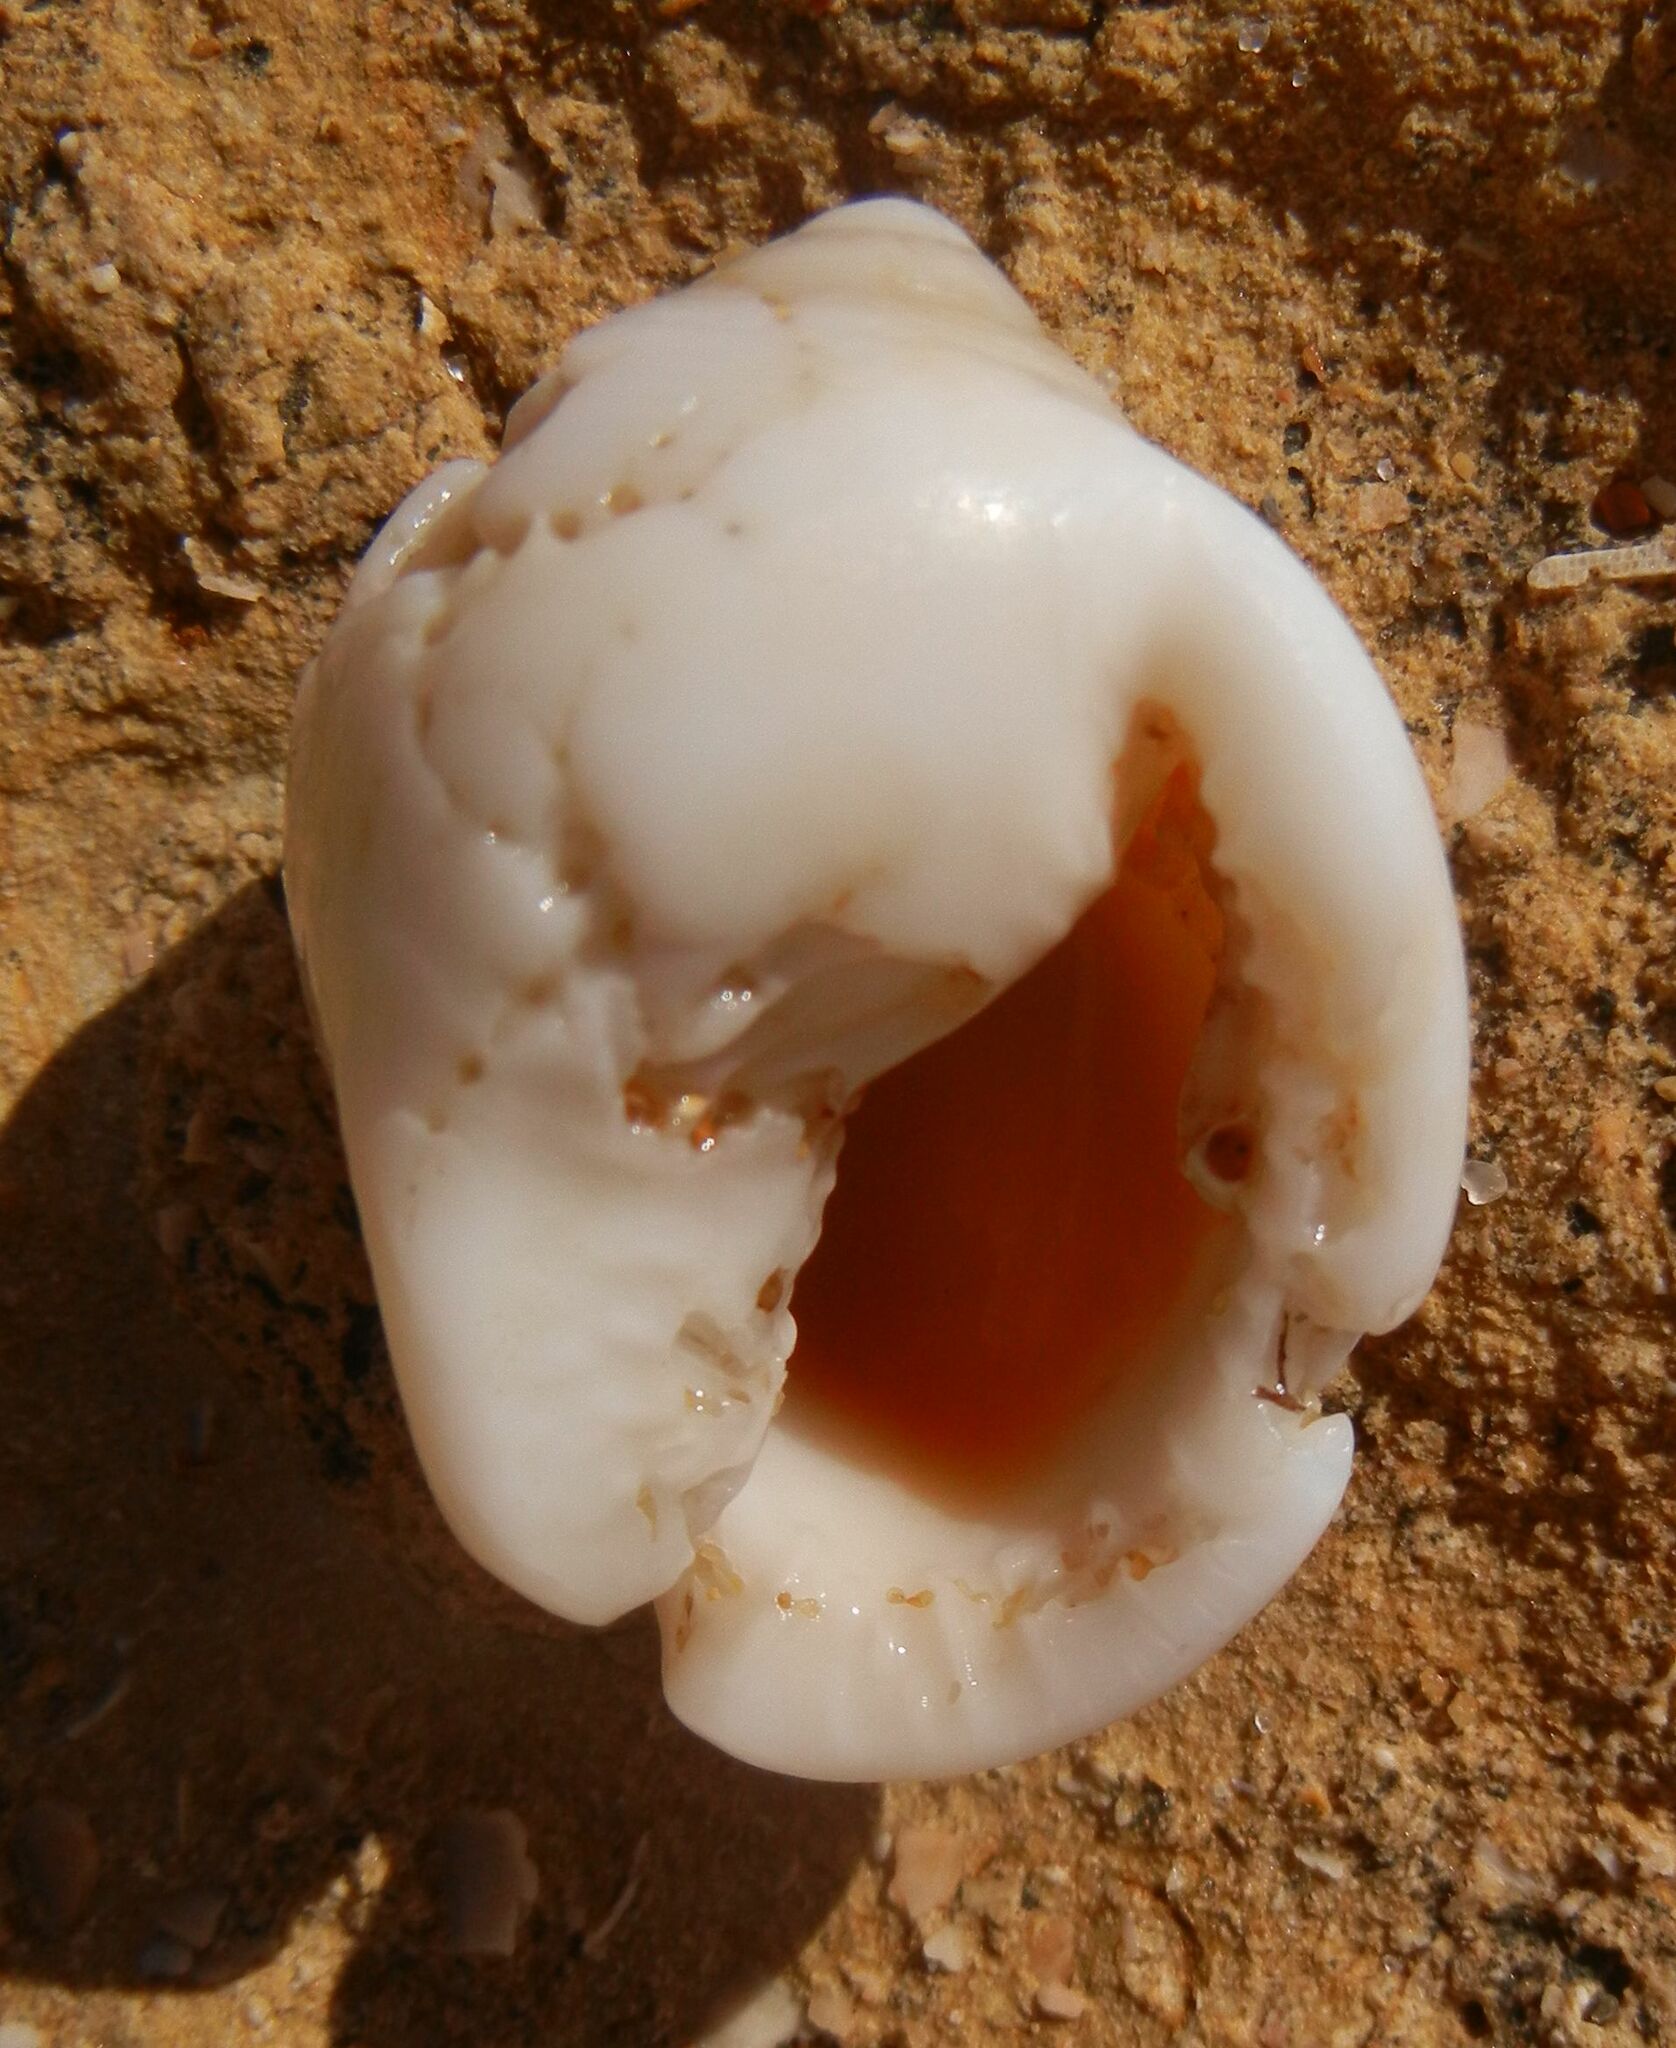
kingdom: Animalia
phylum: Mollusca
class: Gastropoda
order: Littorinimorpha
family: Cassidae
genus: Semicassis
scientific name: Semicassis saburon
